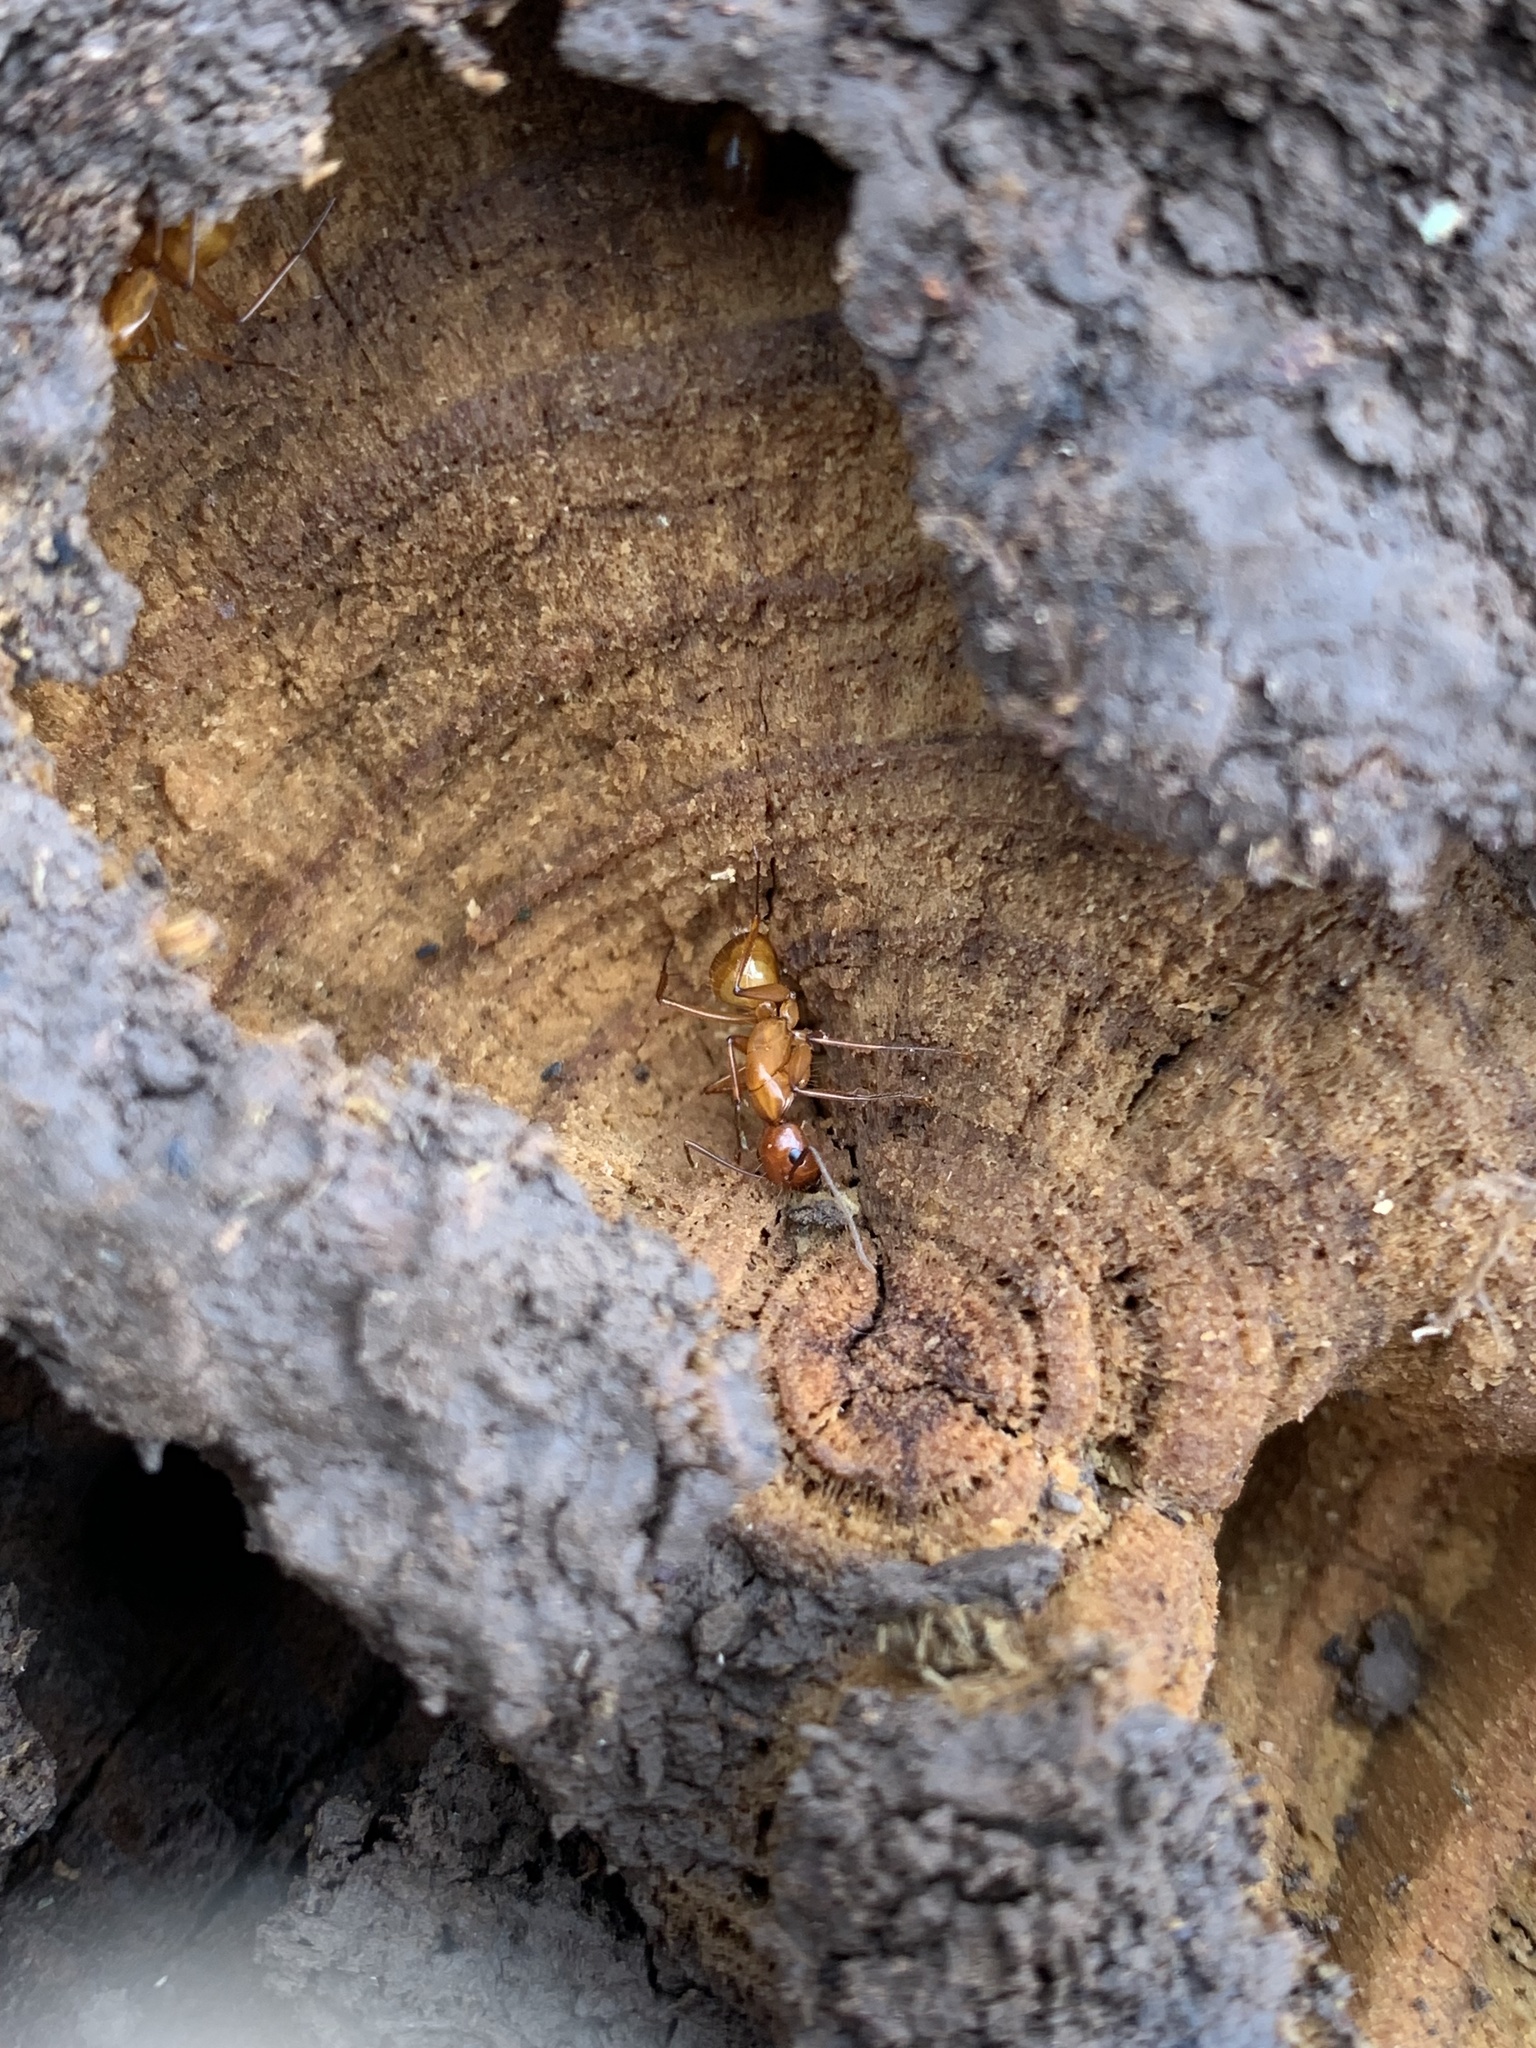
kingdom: Animalia
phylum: Arthropoda
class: Insecta
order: Hymenoptera
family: Formicidae
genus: Camponotus
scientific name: Camponotus castaneus
